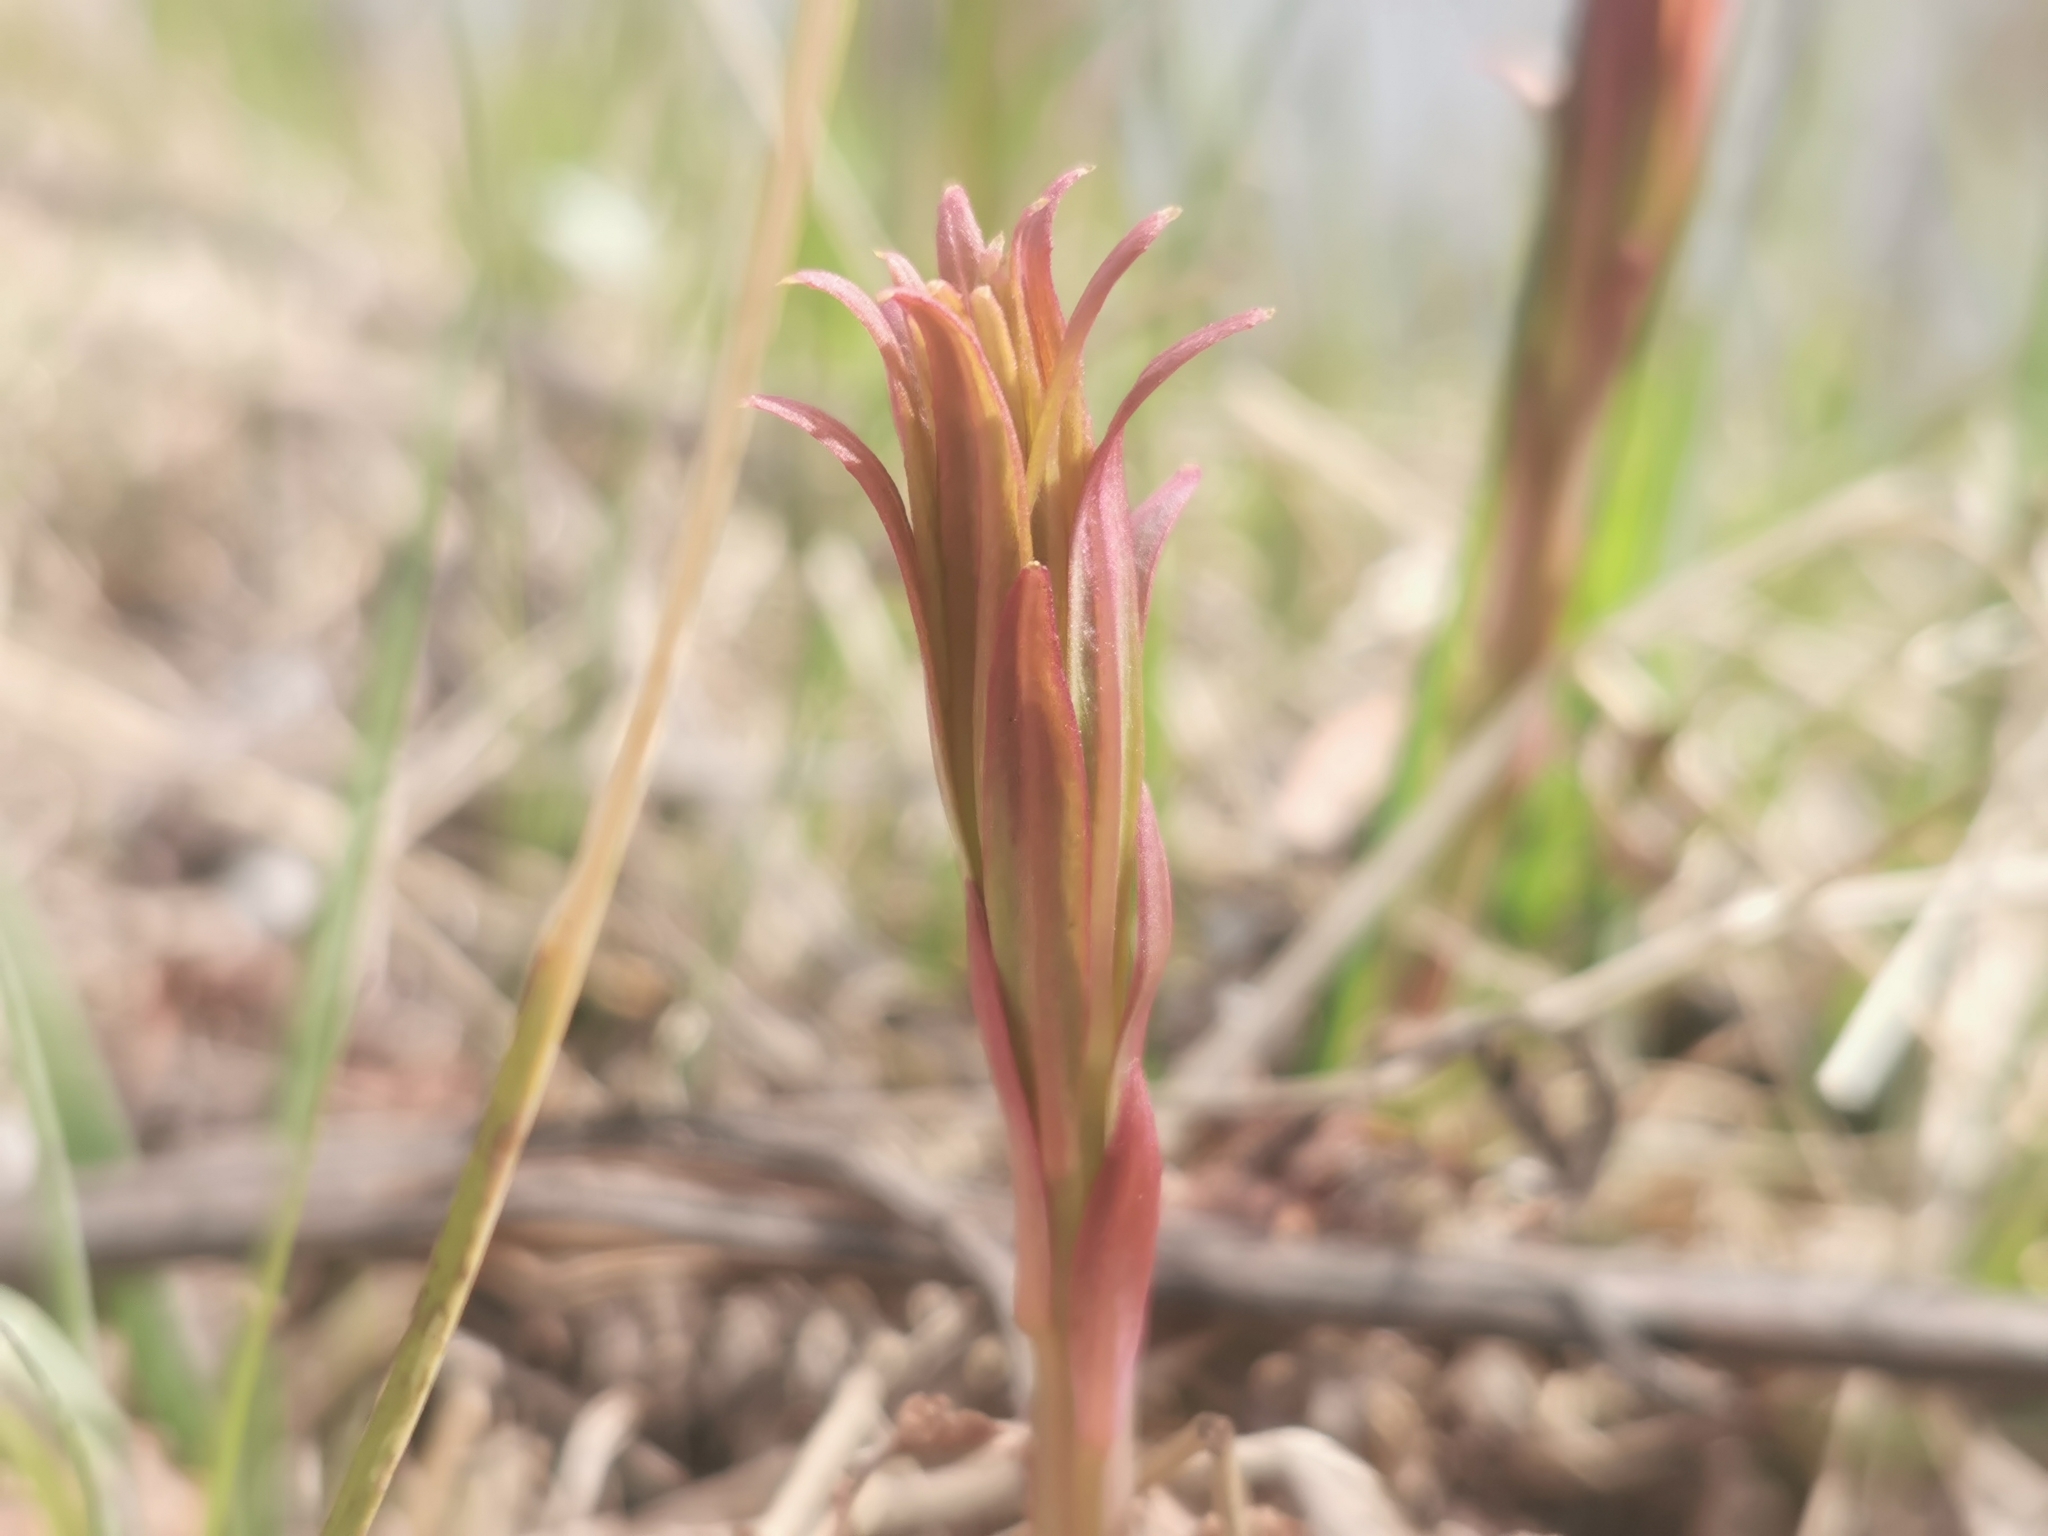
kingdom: Plantae
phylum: Tracheophyta
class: Magnoliopsida
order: Myrtales
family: Onagraceae
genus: Chamaenerion
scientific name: Chamaenerion angustifolium
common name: Fireweed
